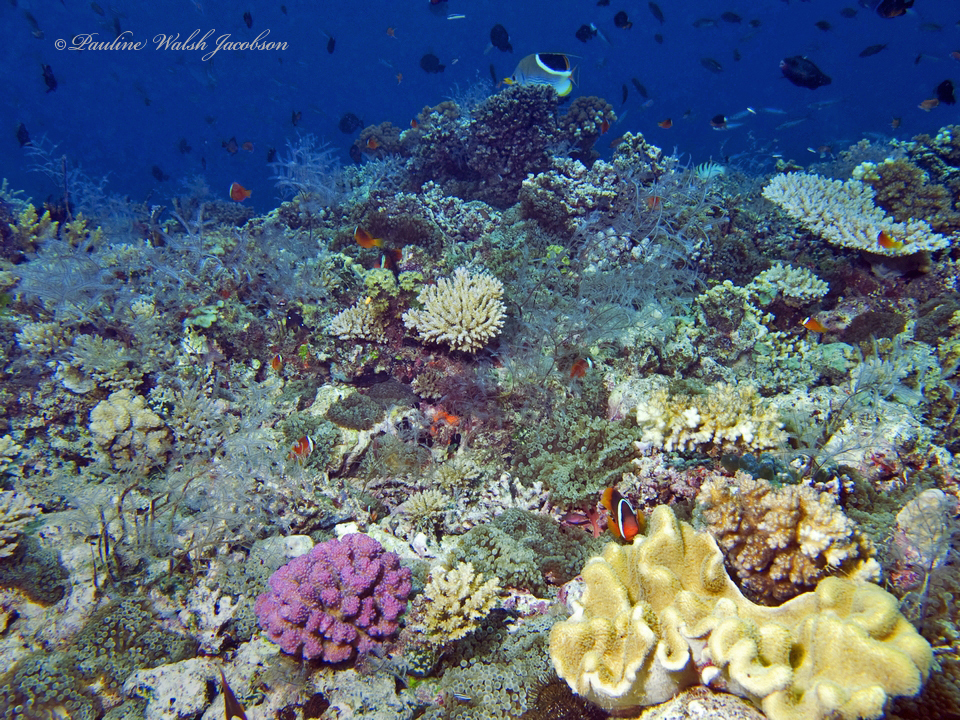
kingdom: Animalia
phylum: Chordata
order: Perciformes
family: Chaetodontidae
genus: Chaetodon
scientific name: Chaetodon ephippium
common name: Saddled butterflyfish
